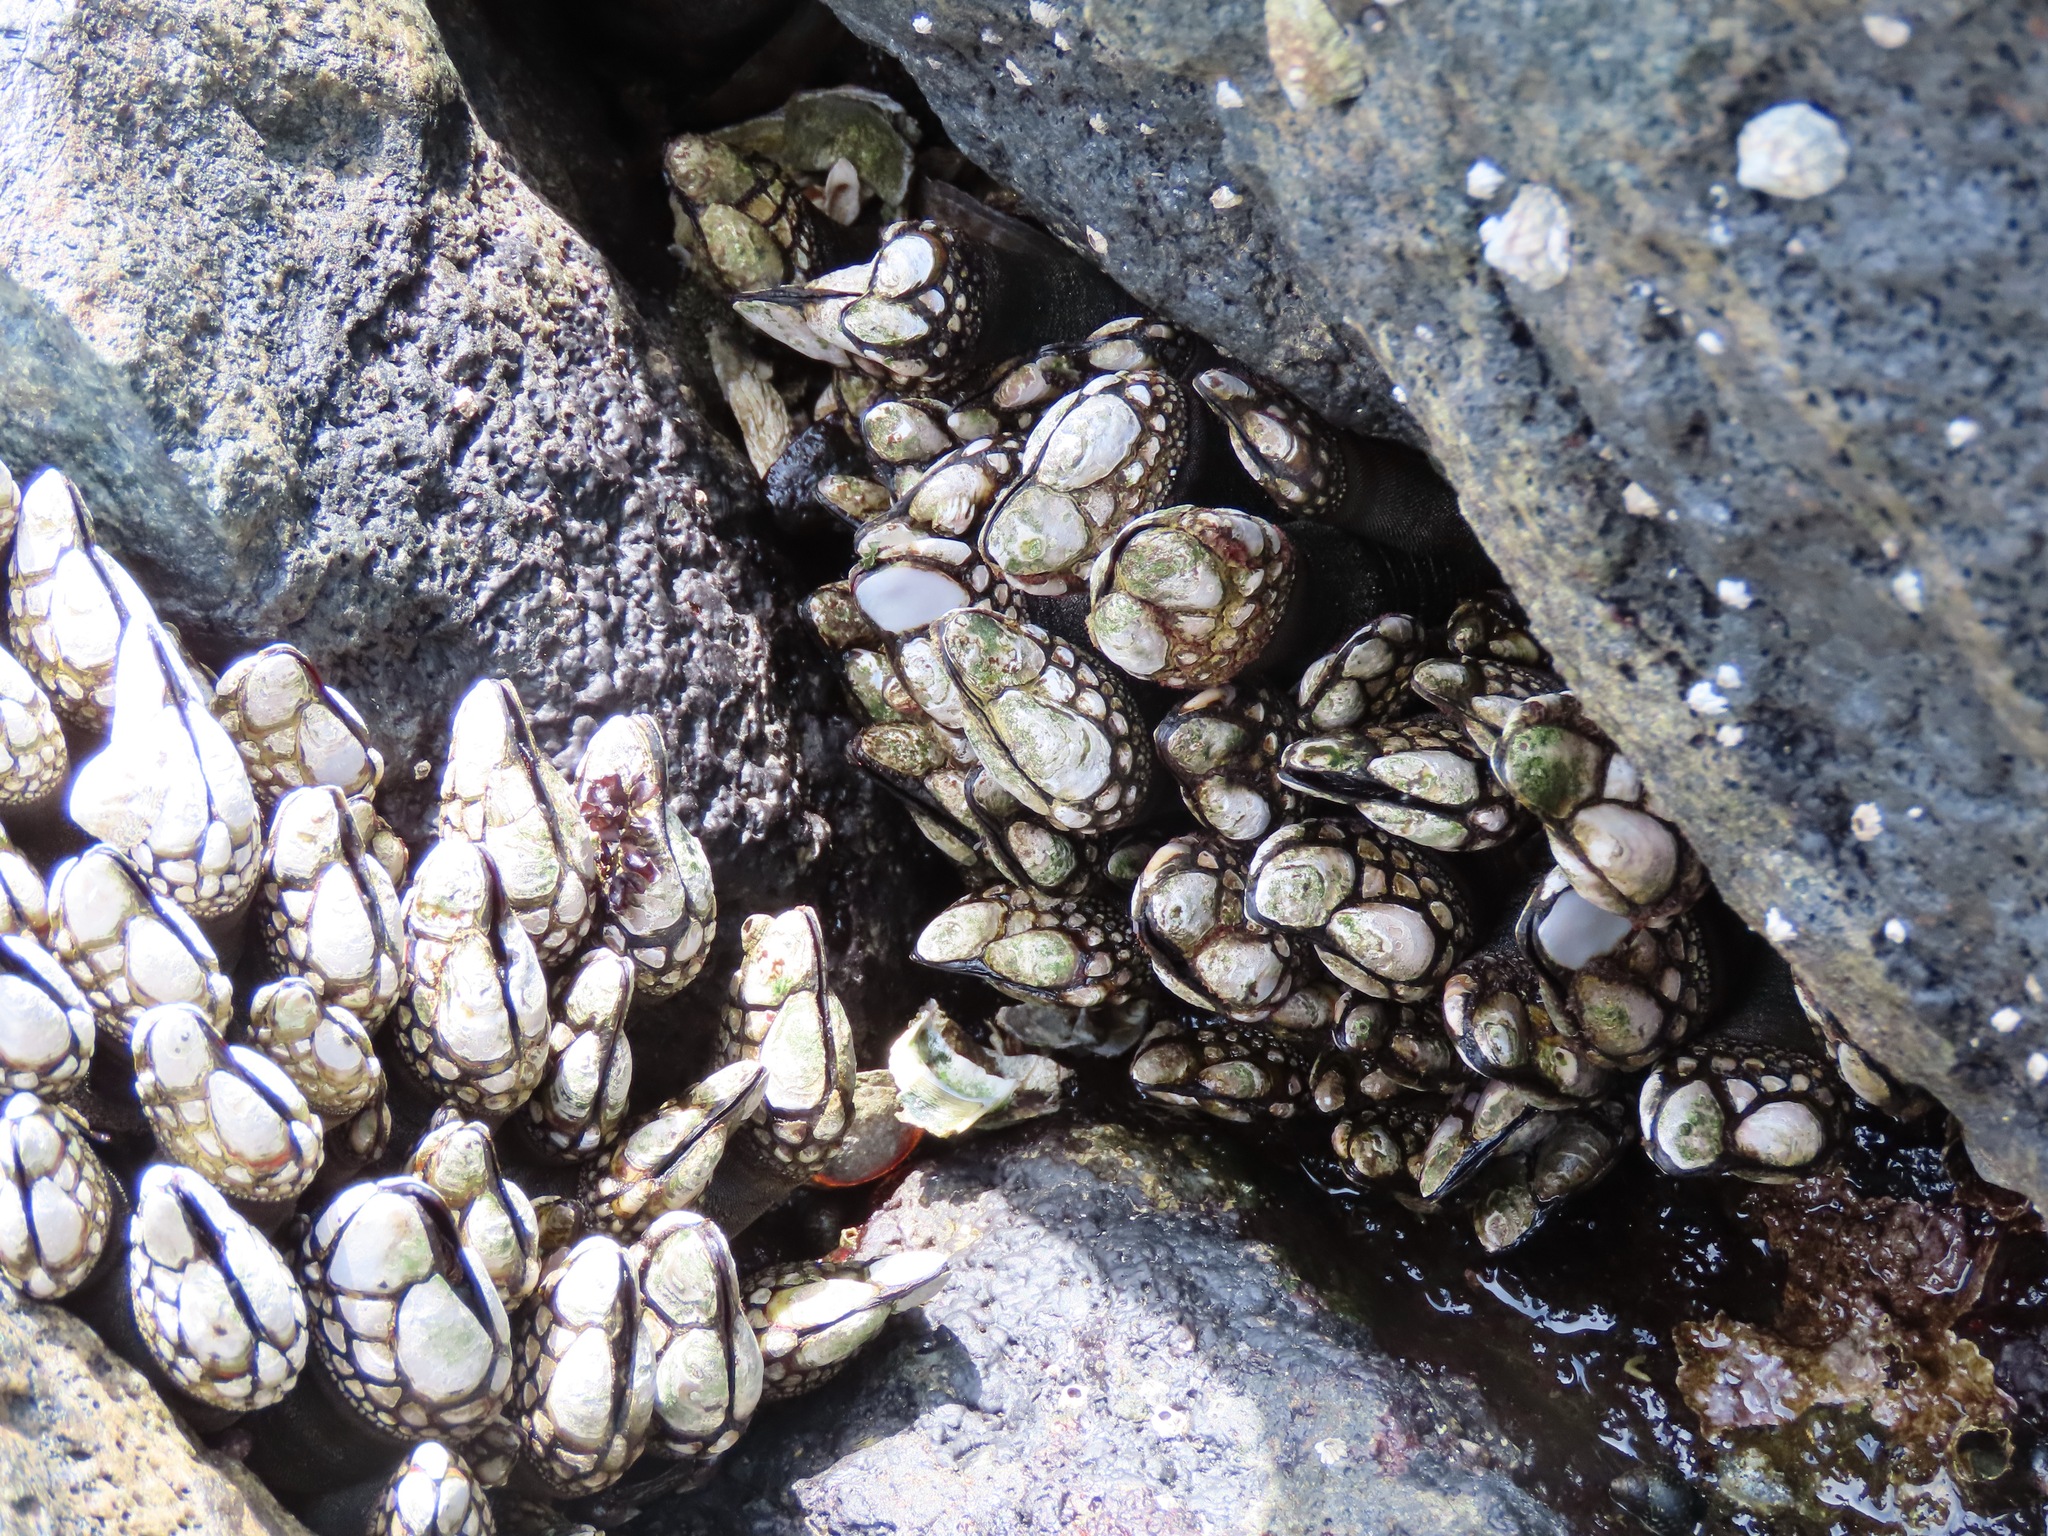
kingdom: Animalia
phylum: Arthropoda
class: Maxillopoda
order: Pedunculata
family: Pollicipedidae
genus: Pollicipes
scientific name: Pollicipes polymerus
